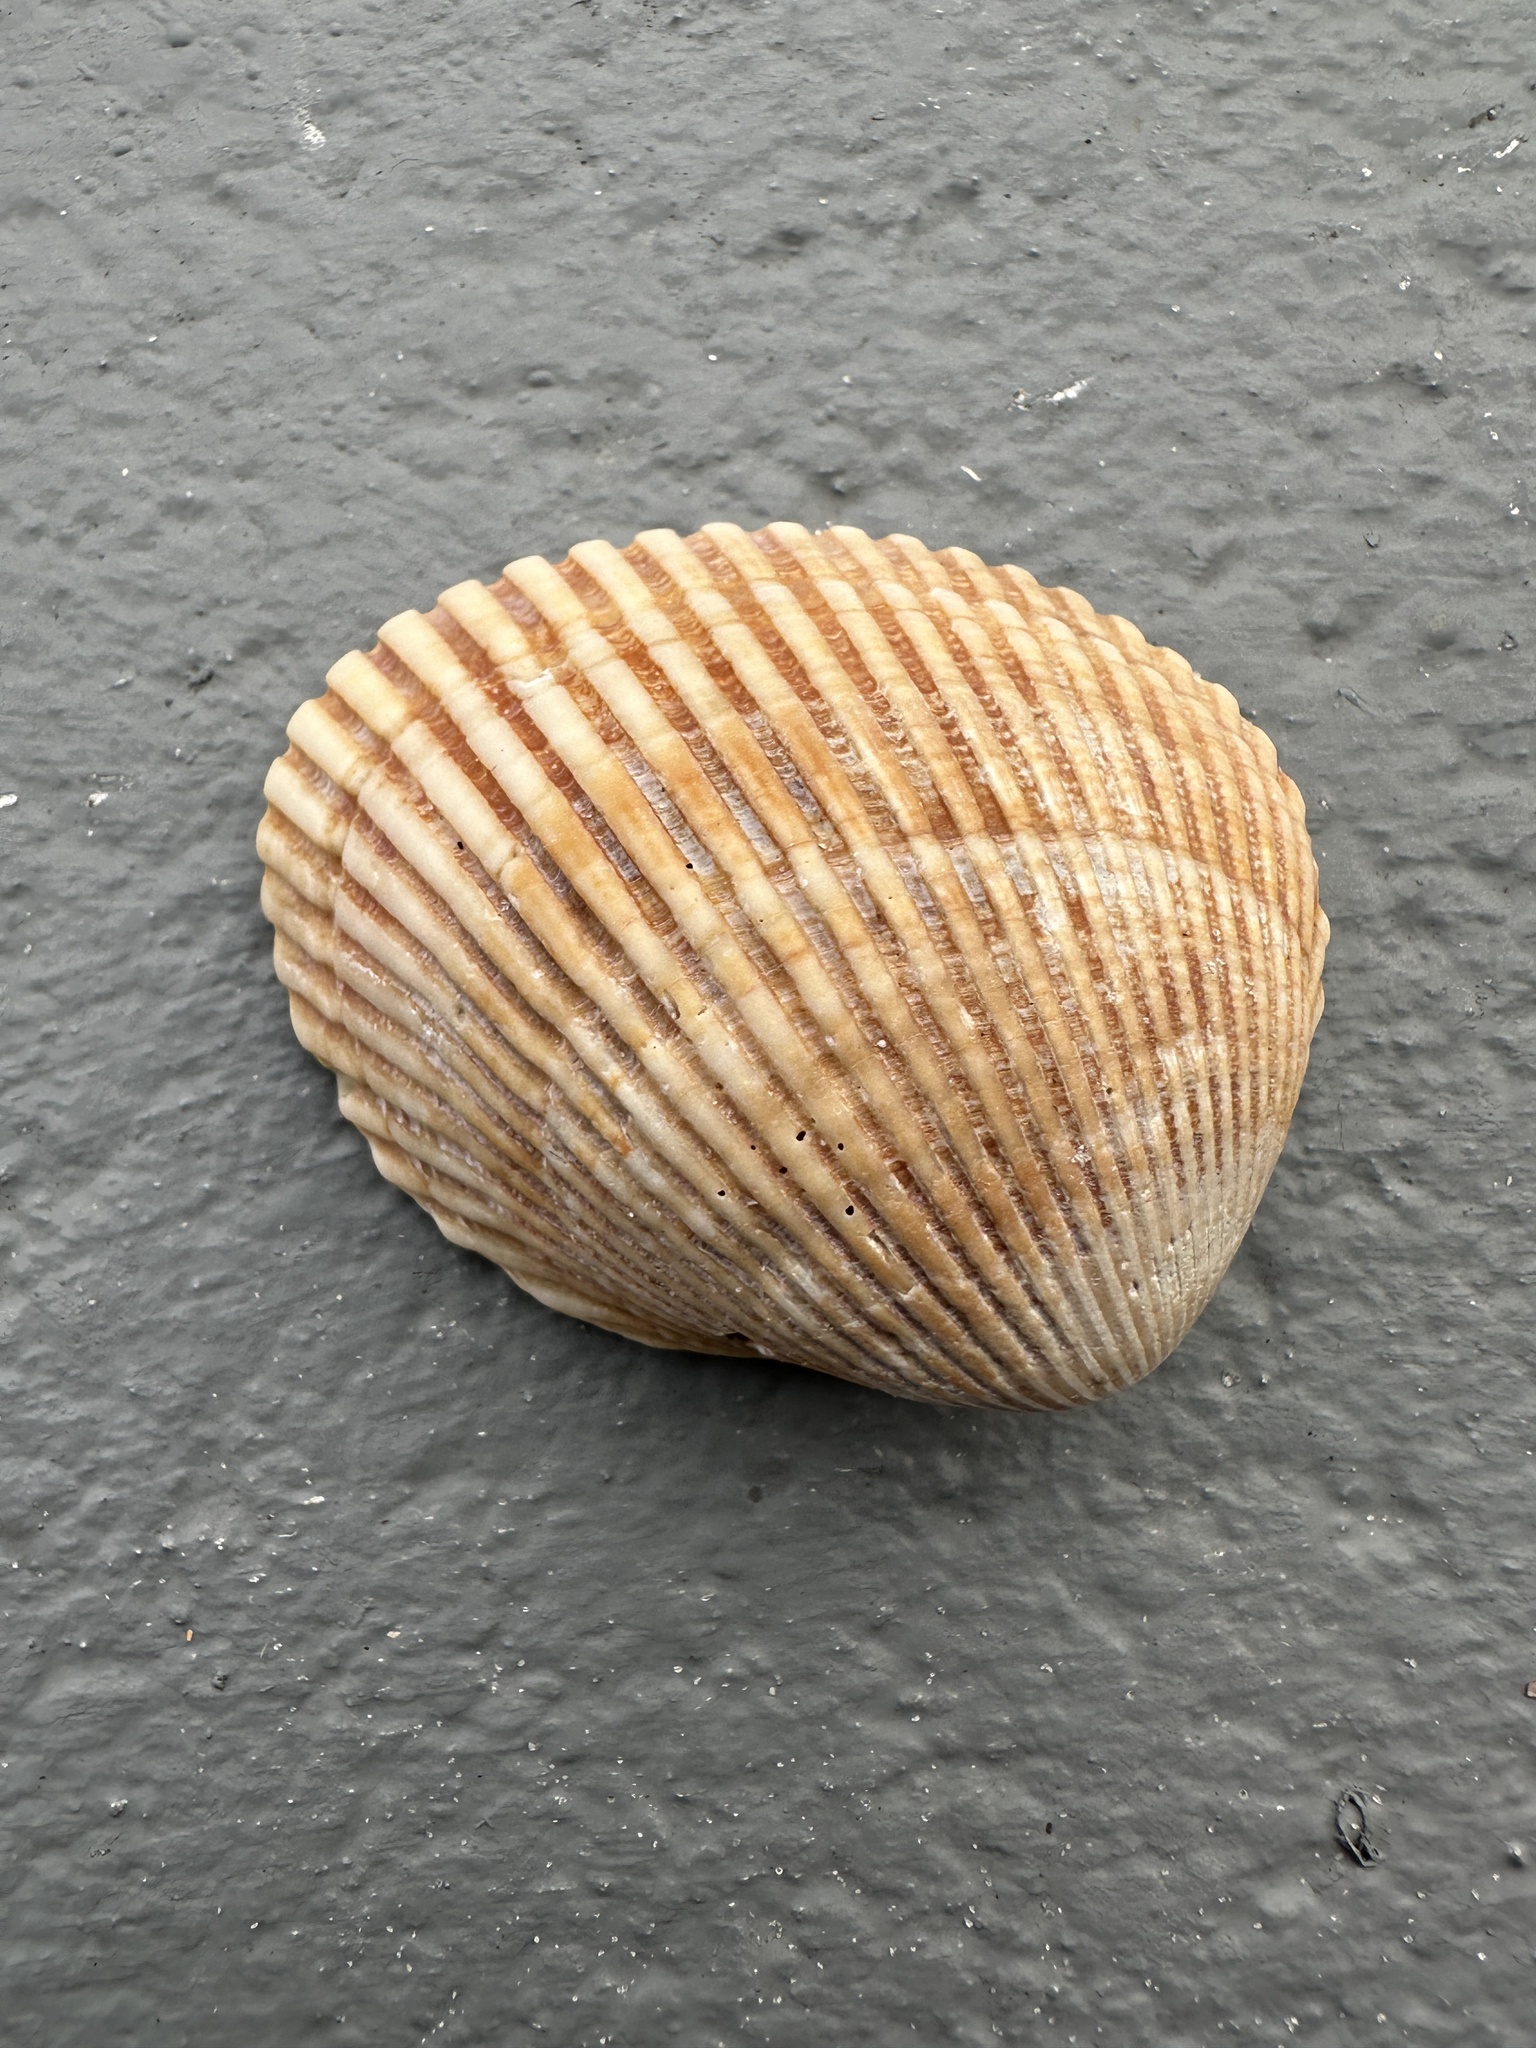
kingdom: Animalia
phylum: Mollusca
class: Bivalvia
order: Arcida
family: Arcidae
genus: Lunarca
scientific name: Lunarca ovalis
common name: Blood ark
